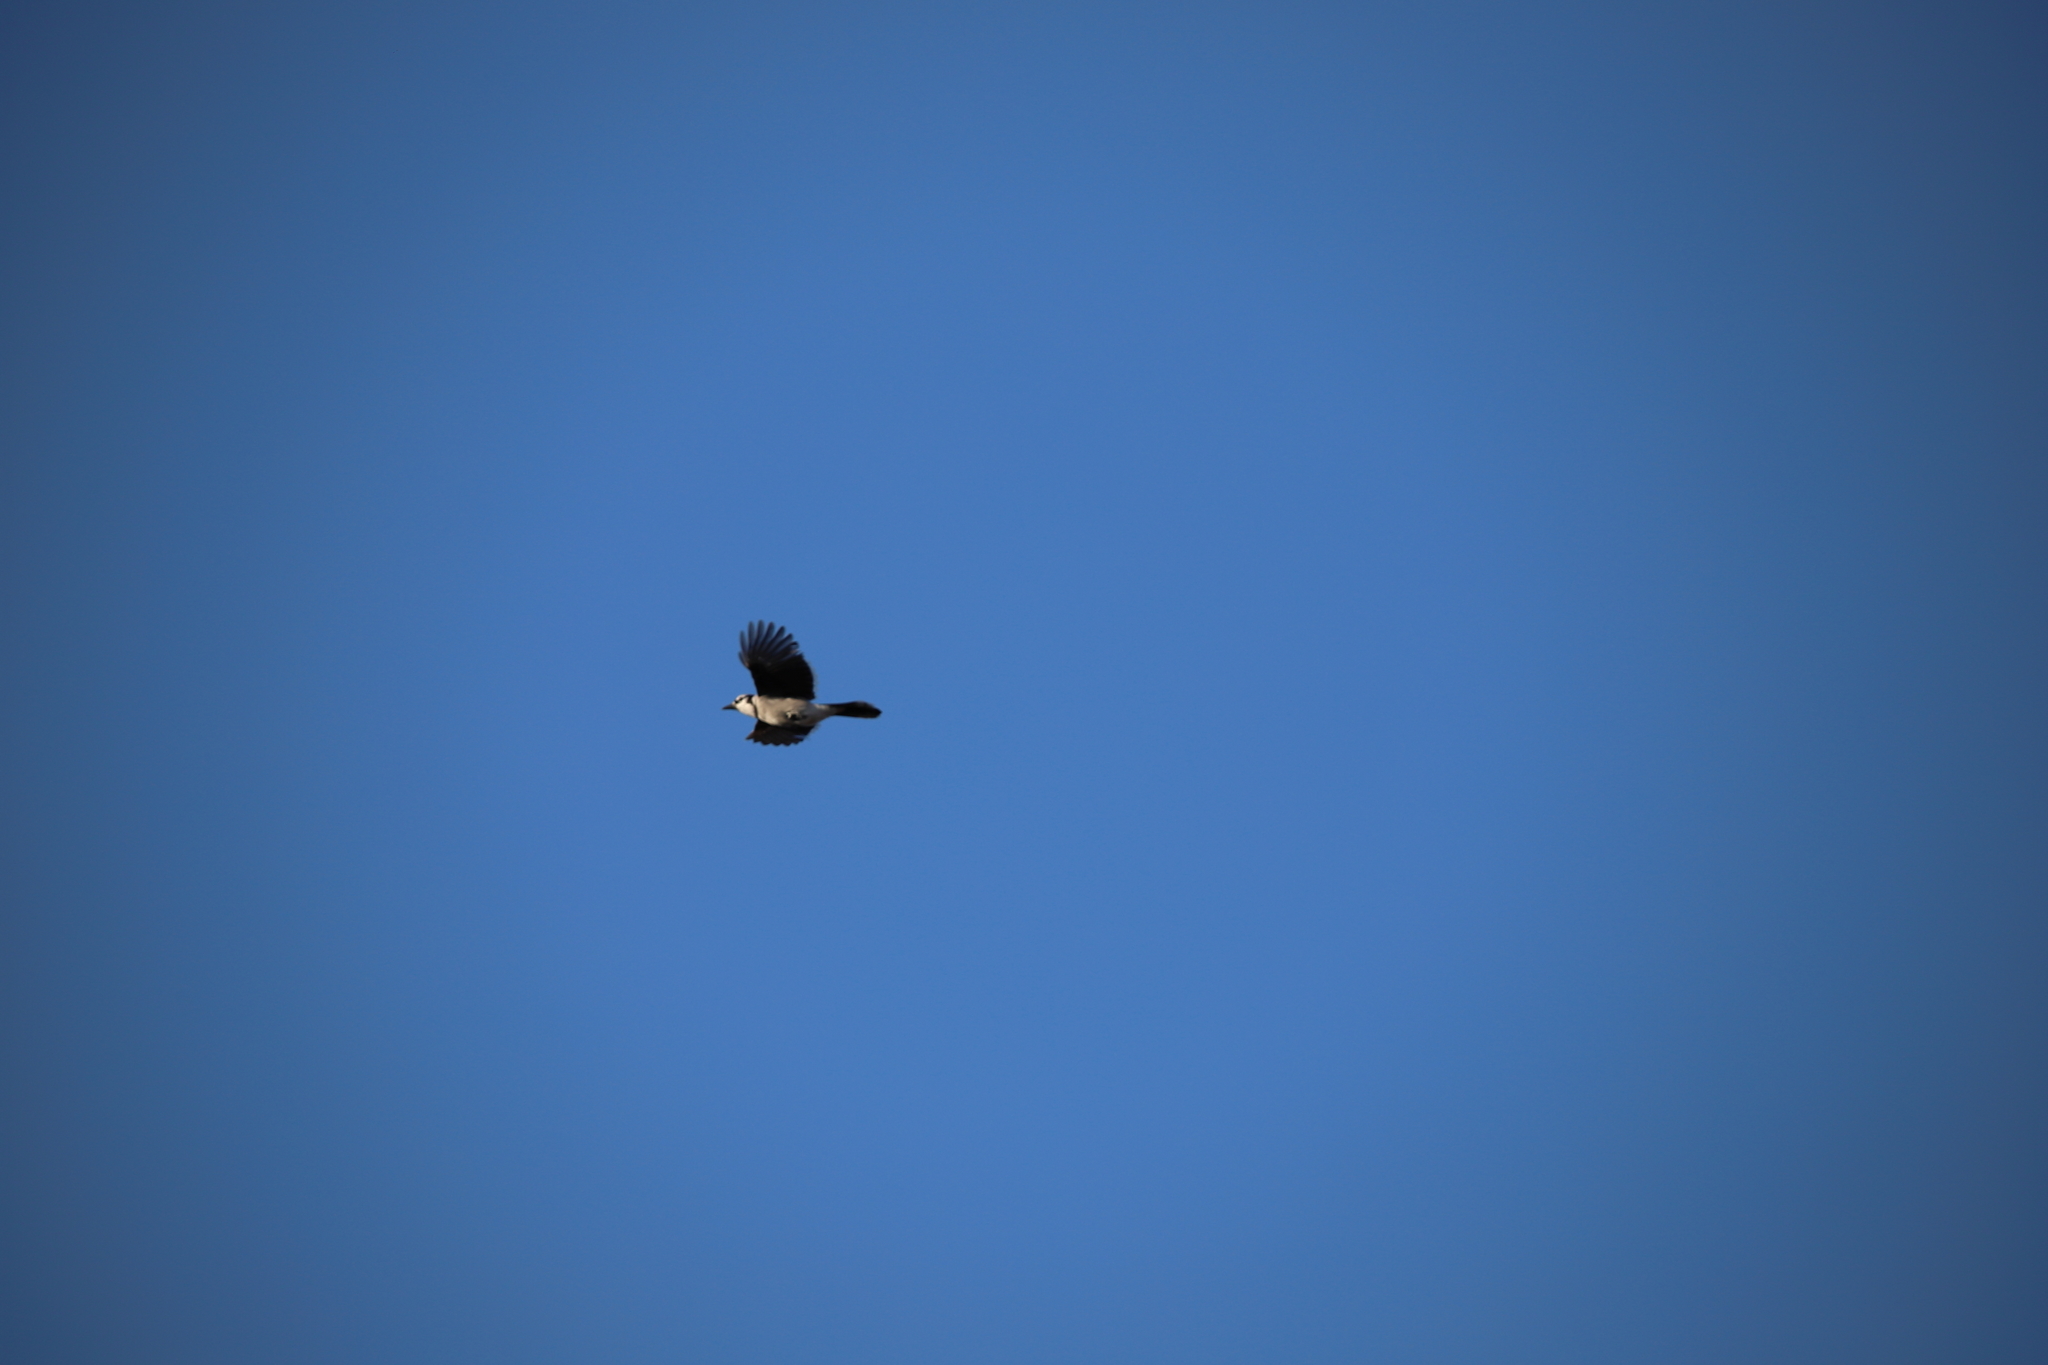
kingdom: Animalia
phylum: Chordata
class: Aves
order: Passeriformes
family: Corvidae
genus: Cyanocitta
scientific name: Cyanocitta cristata
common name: Blue jay
